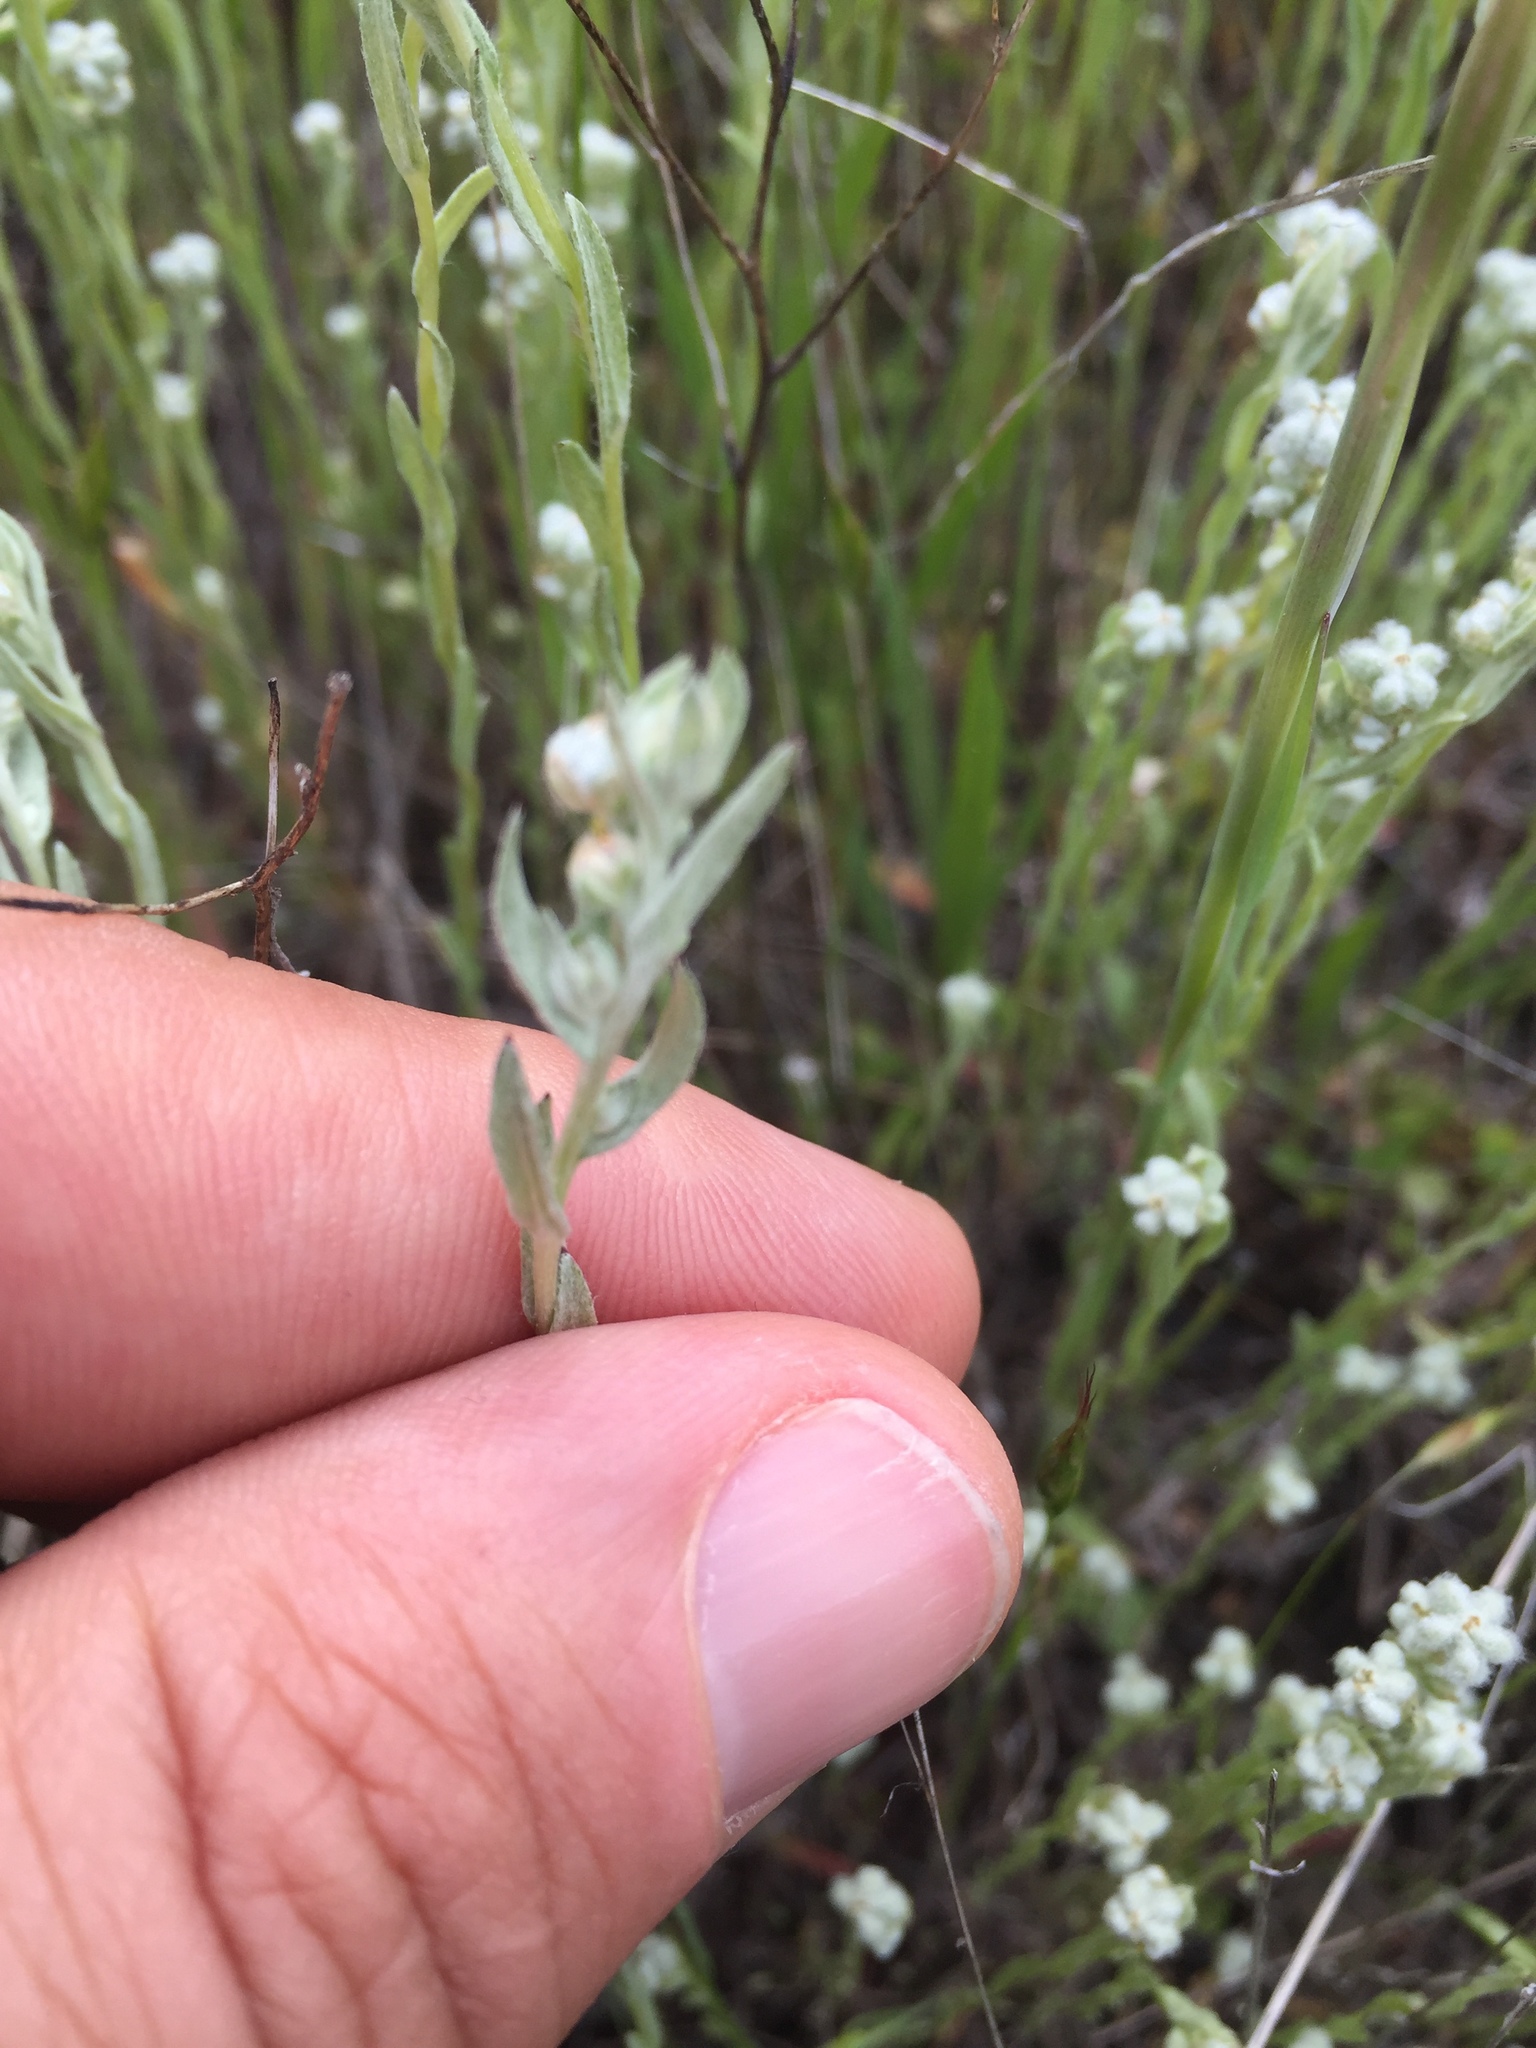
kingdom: Plantae
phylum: Tracheophyta
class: Magnoliopsida
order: Asterales
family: Asteraceae
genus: Bombycilaena
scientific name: Bombycilaena californica
